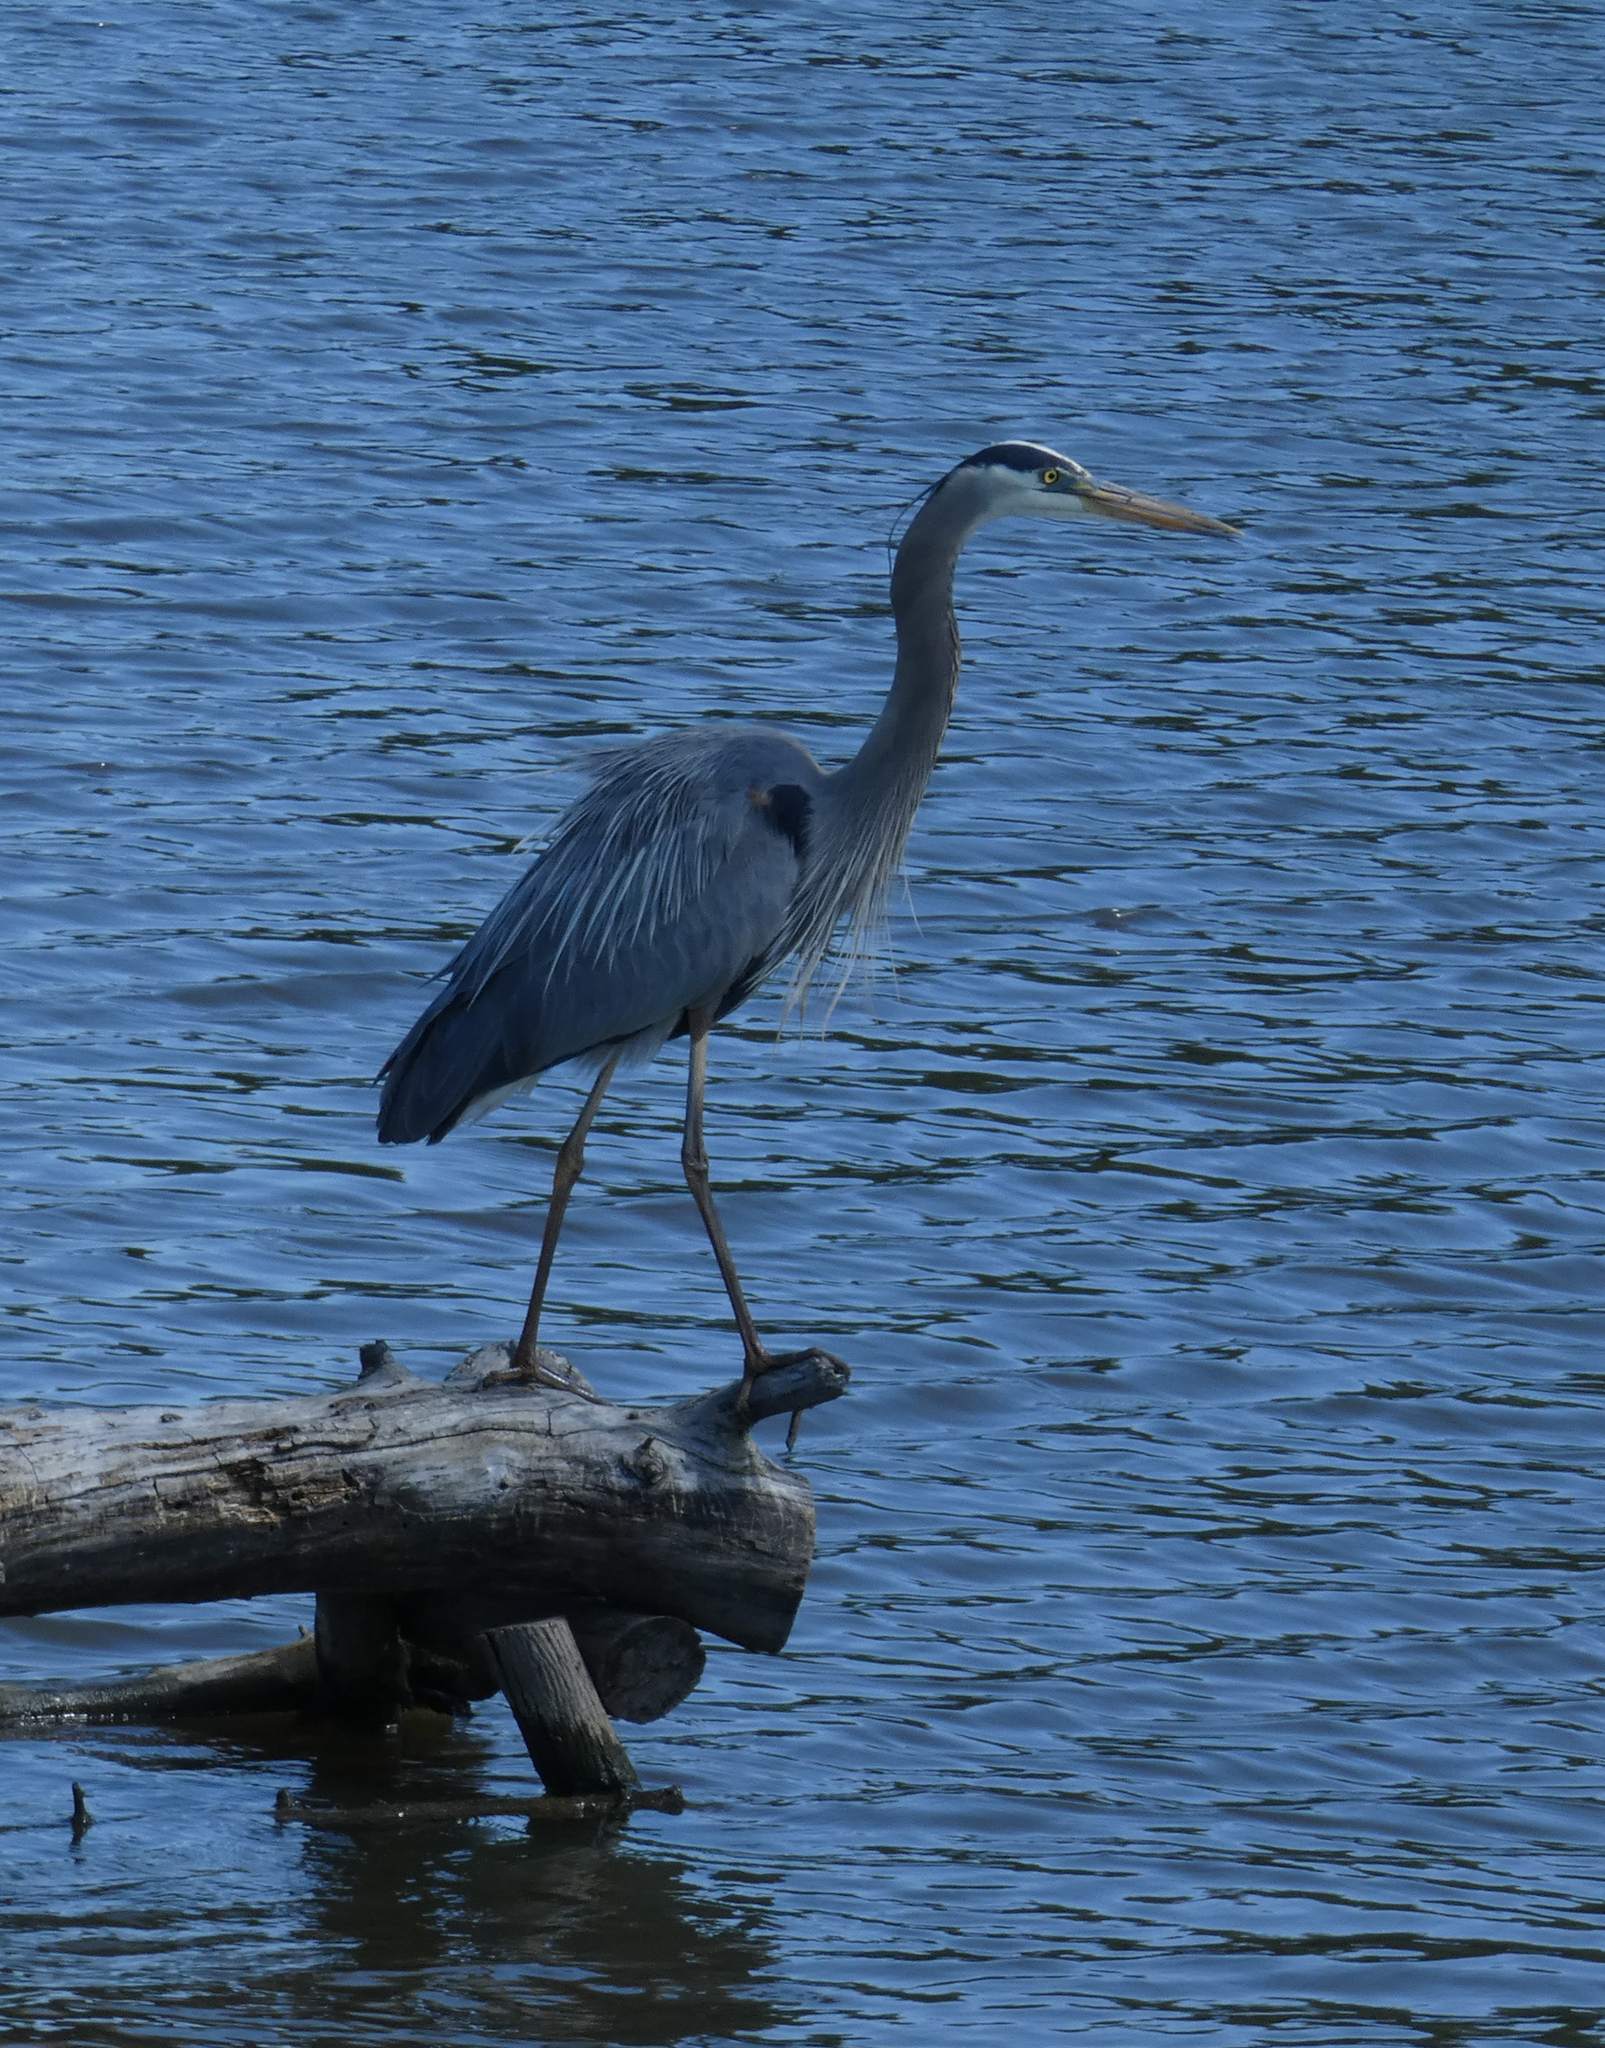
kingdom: Animalia
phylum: Chordata
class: Aves
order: Pelecaniformes
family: Ardeidae
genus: Ardea
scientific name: Ardea herodias
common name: Great blue heron
